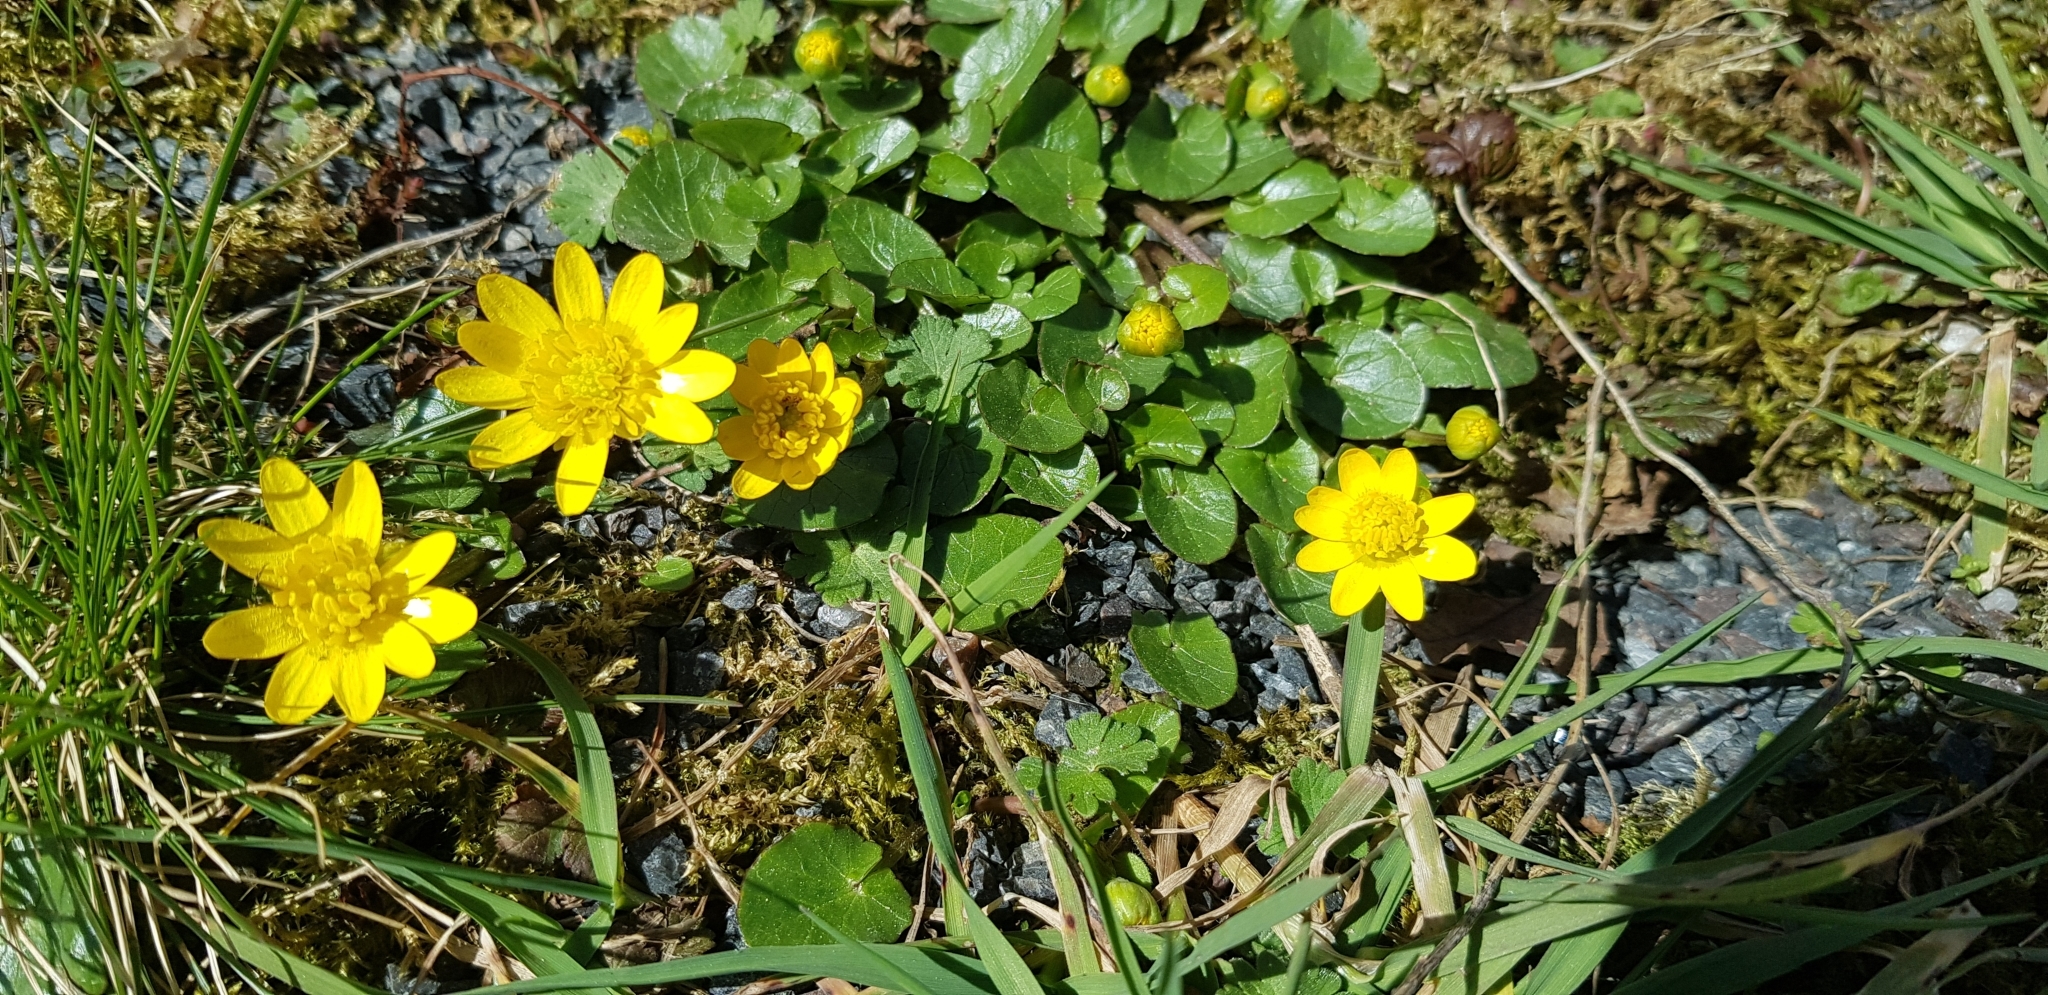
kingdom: Plantae
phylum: Tracheophyta
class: Magnoliopsida
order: Ranunculales
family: Ranunculaceae
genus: Ficaria
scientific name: Ficaria verna
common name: Lesser celandine
